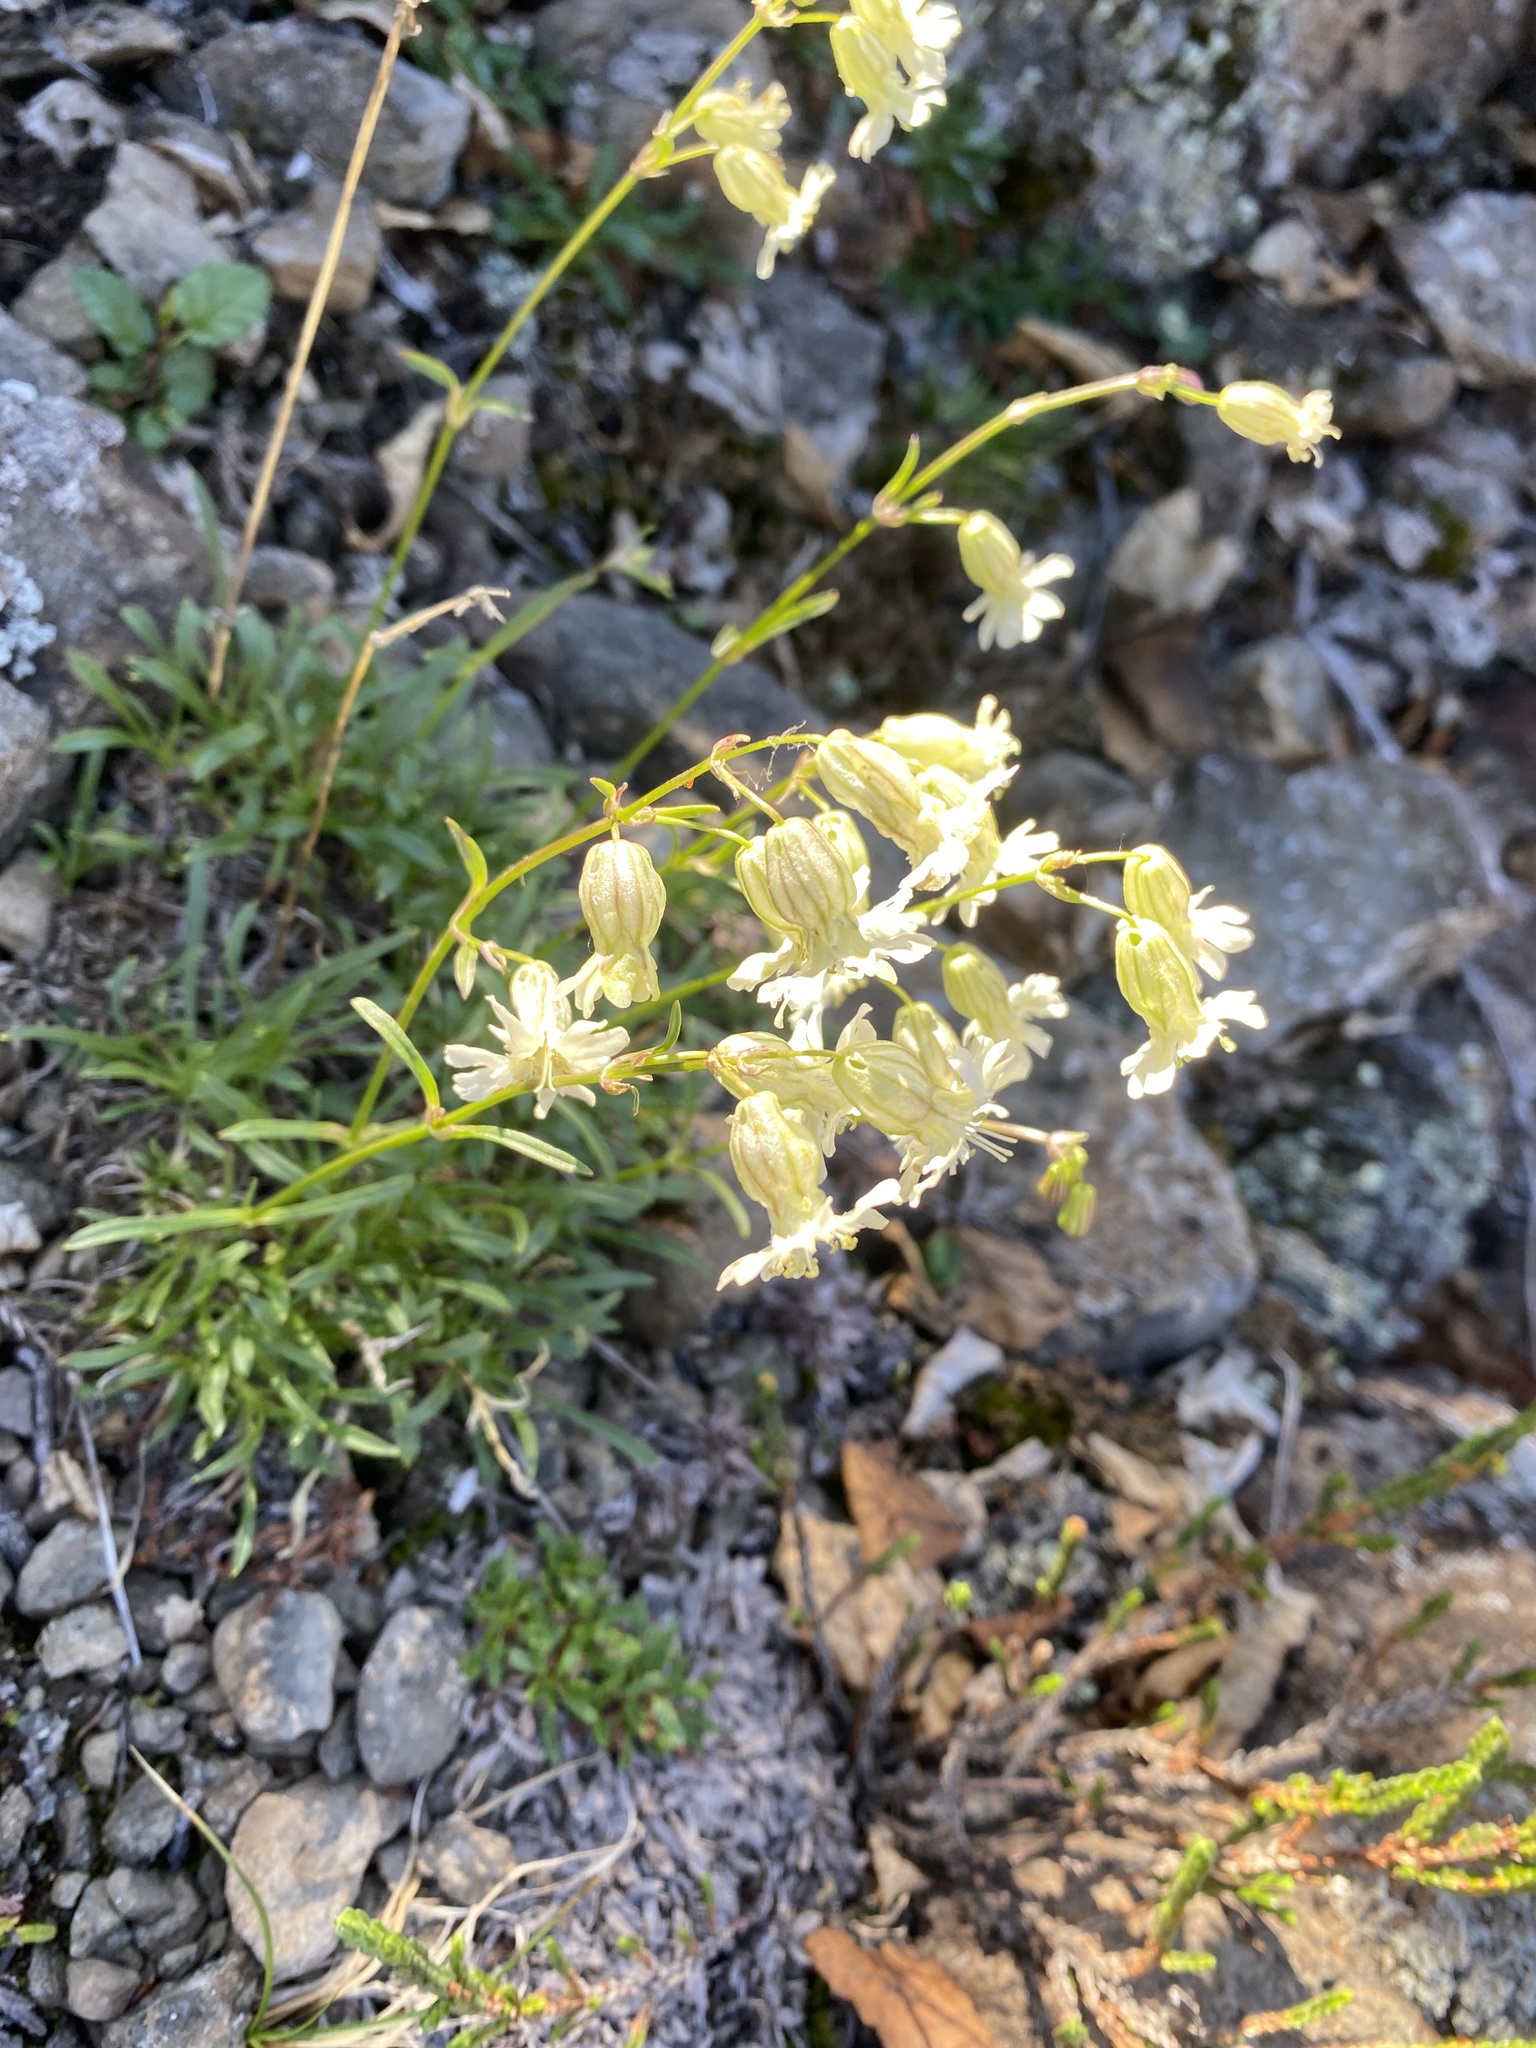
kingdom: Plantae
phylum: Tracheophyta
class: Magnoliopsida
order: Caryophyllales
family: Caryophyllaceae
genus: Silene
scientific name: Silene chamarensis
